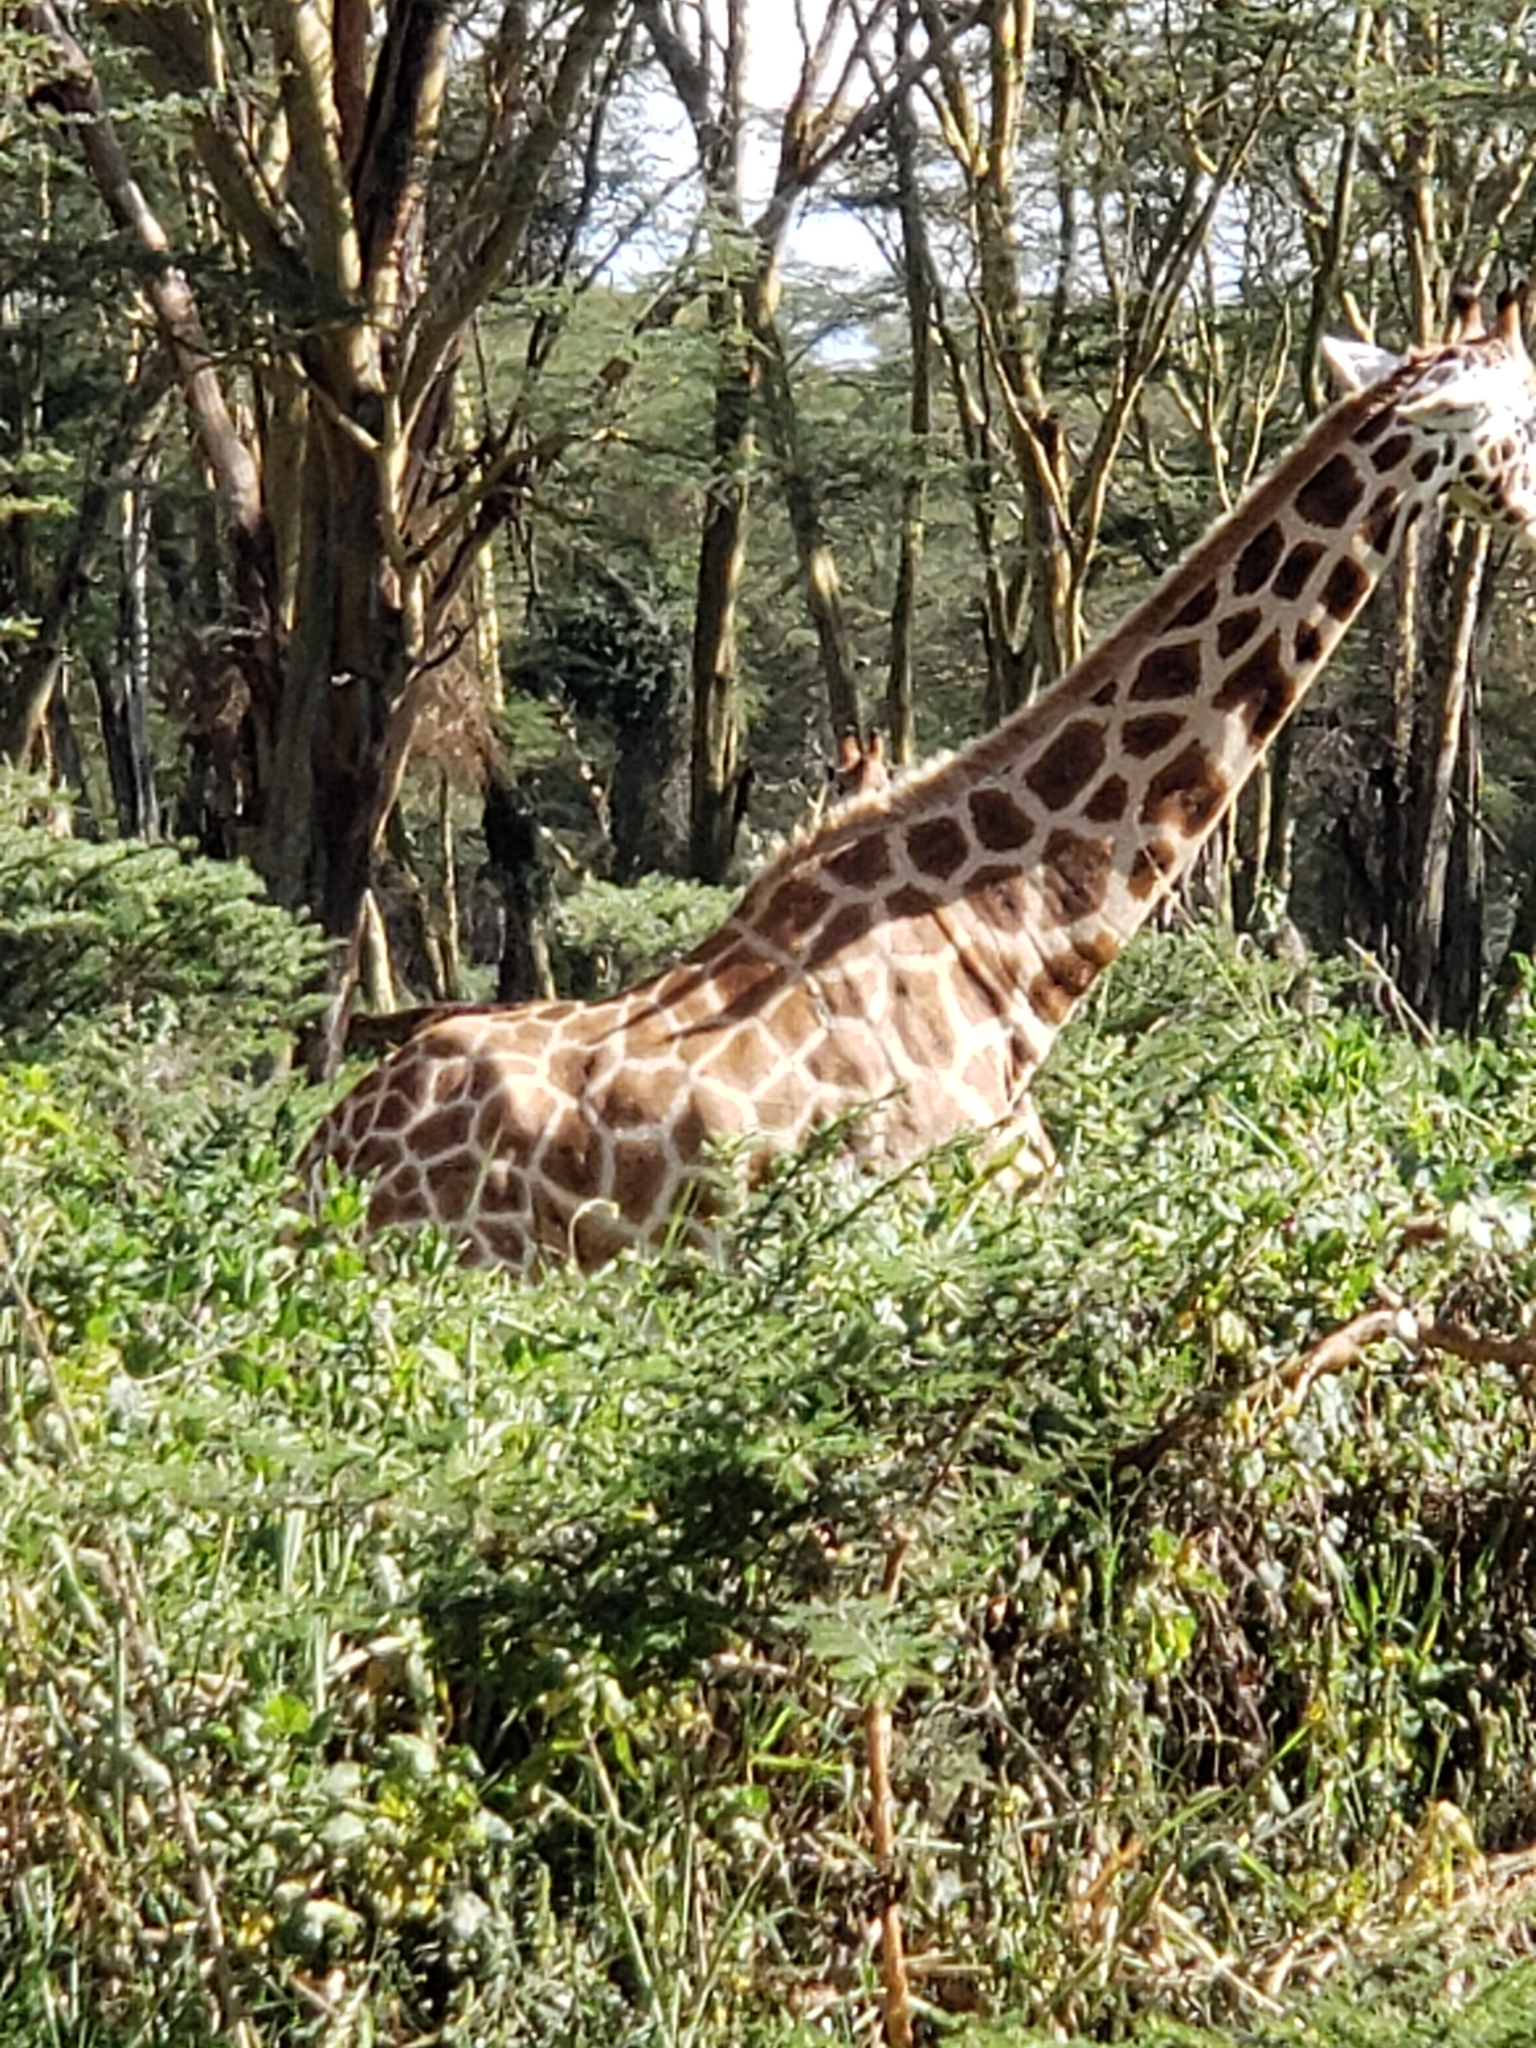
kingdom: Animalia
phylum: Chordata
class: Mammalia
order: Artiodactyla
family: Giraffidae
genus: Giraffa
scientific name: Giraffa camelopardalis
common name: Giraffe
